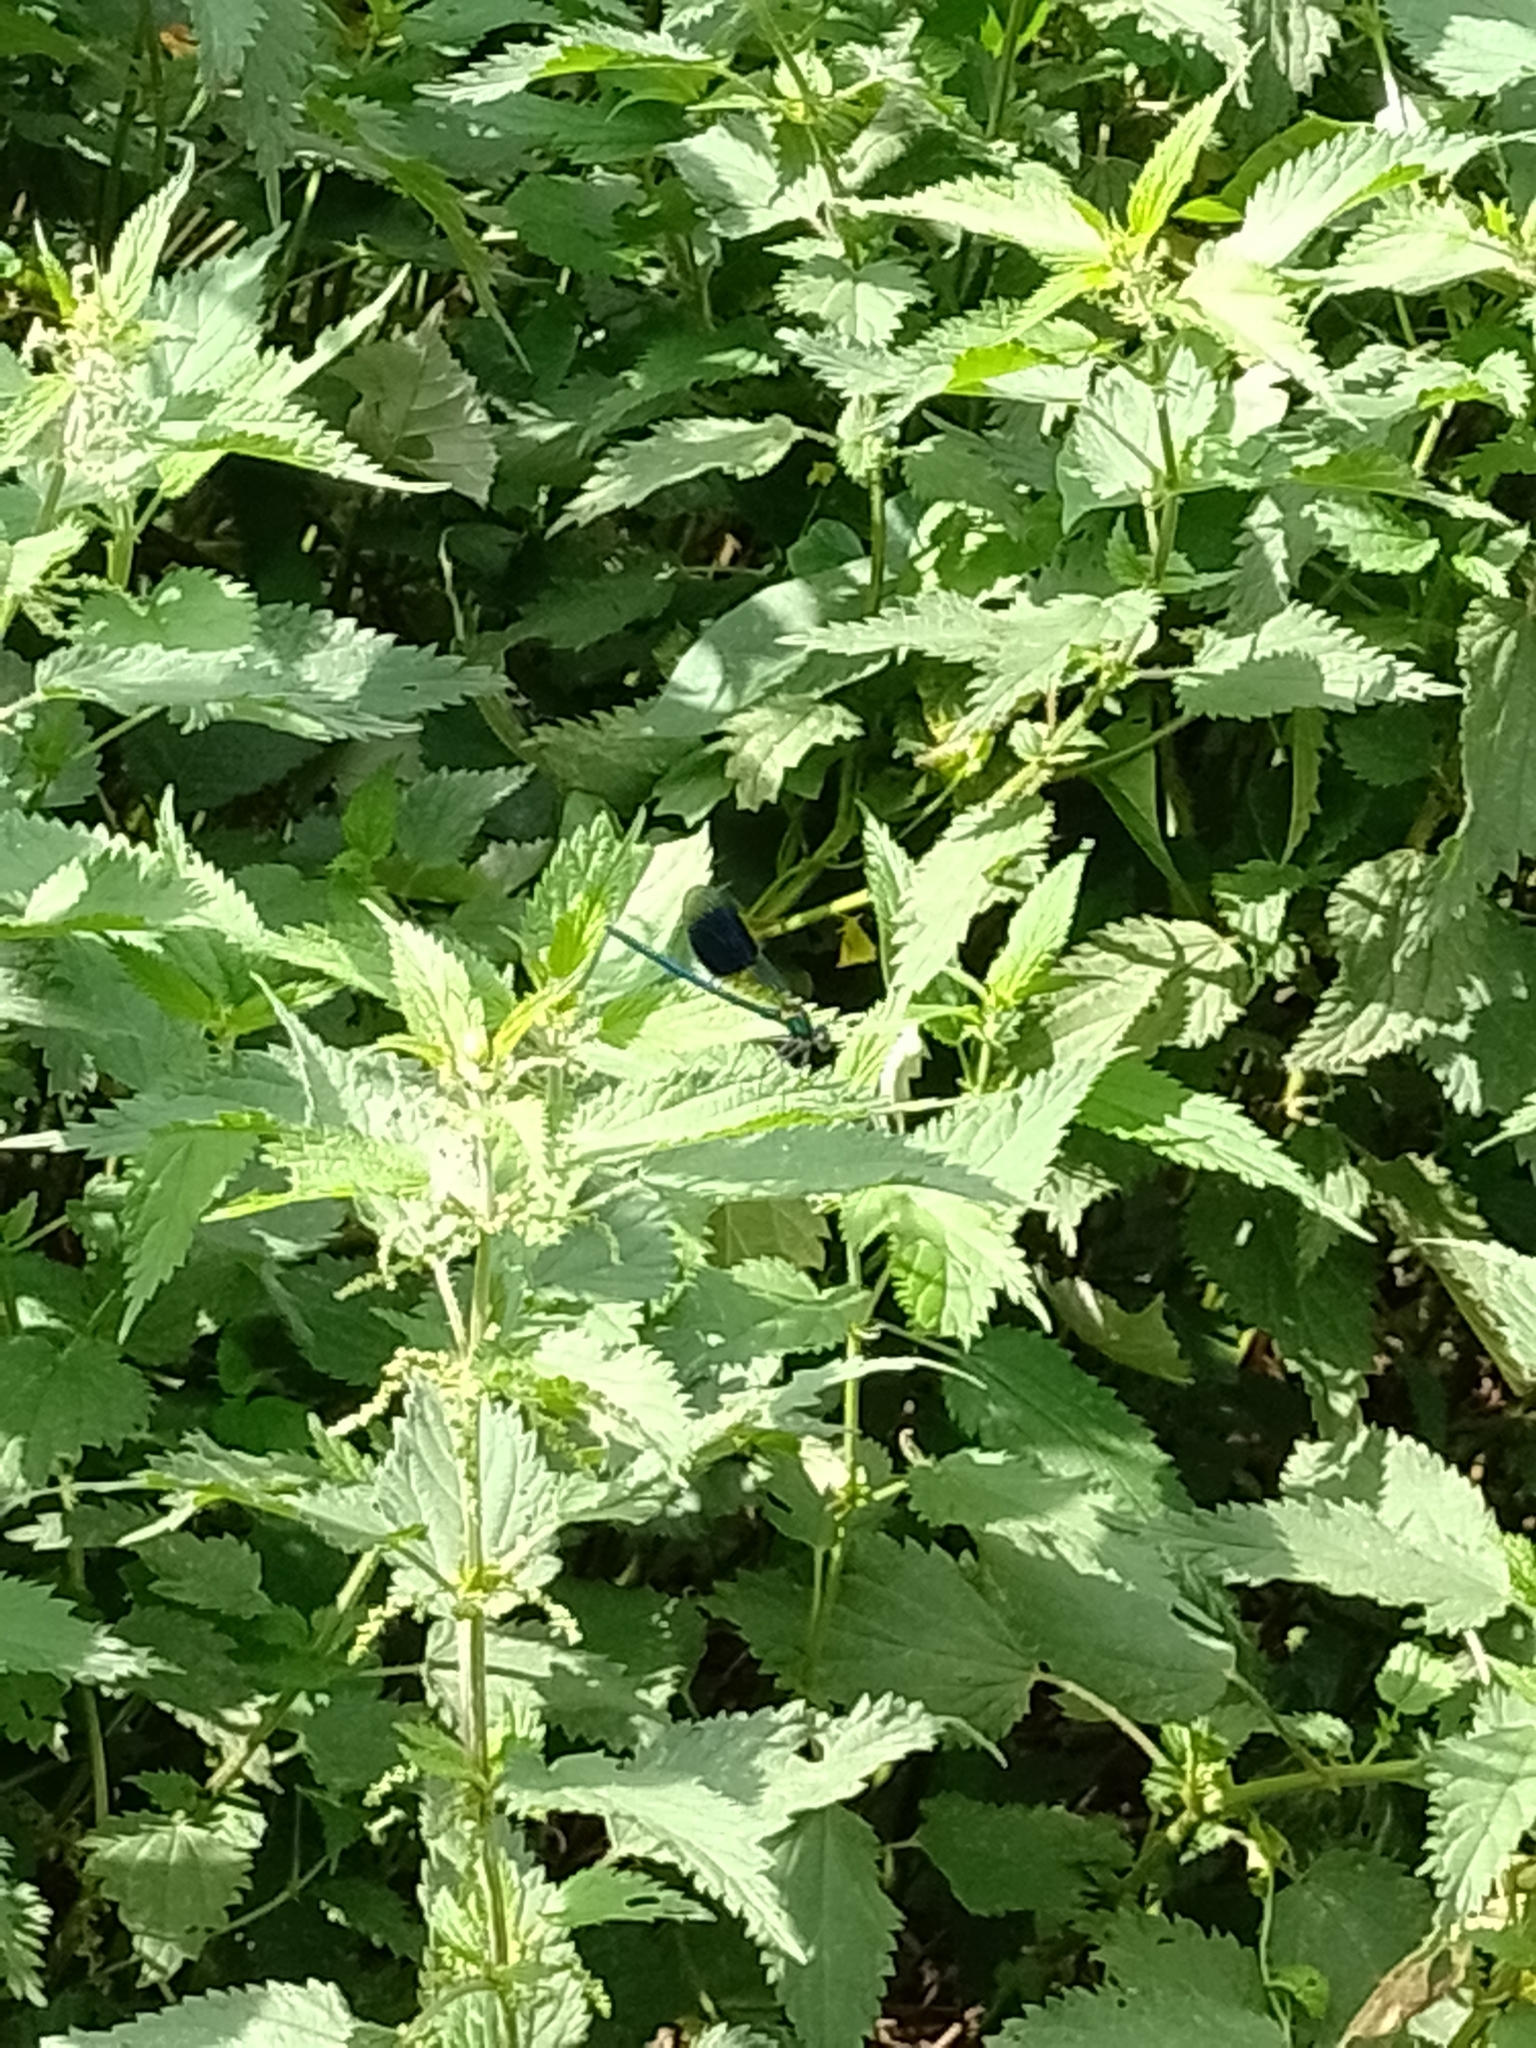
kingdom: Animalia
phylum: Arthropoda
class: Insecta
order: Odonata
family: Calopterygidae
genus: Calopteryx
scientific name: Calopteryx splendens
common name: Banded demoiselle
